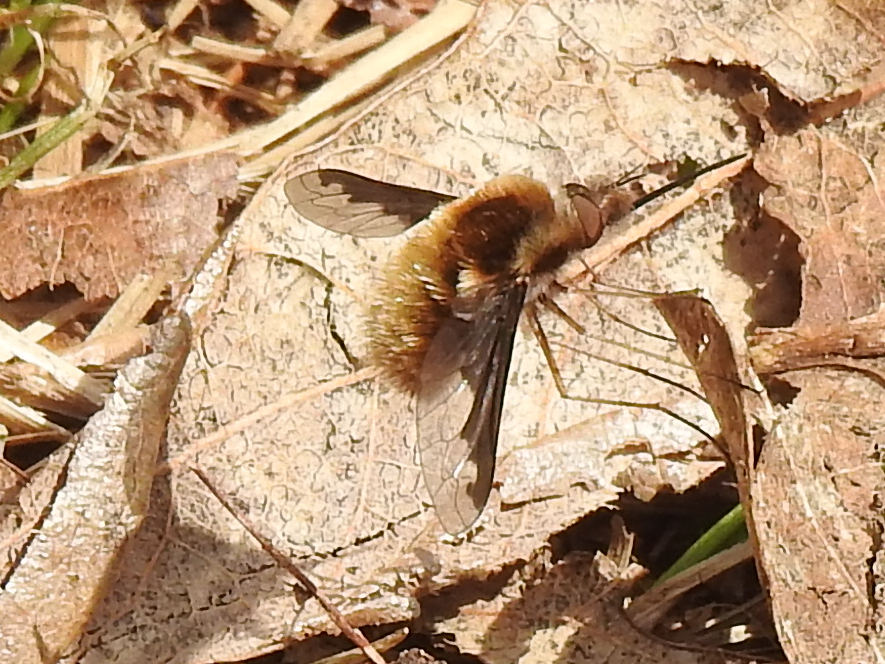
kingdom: Animalia
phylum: Arthropoda
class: Insecta
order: Diptera
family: Bombyliidae
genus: Bombylius
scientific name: Bombylius major
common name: Bee fly
